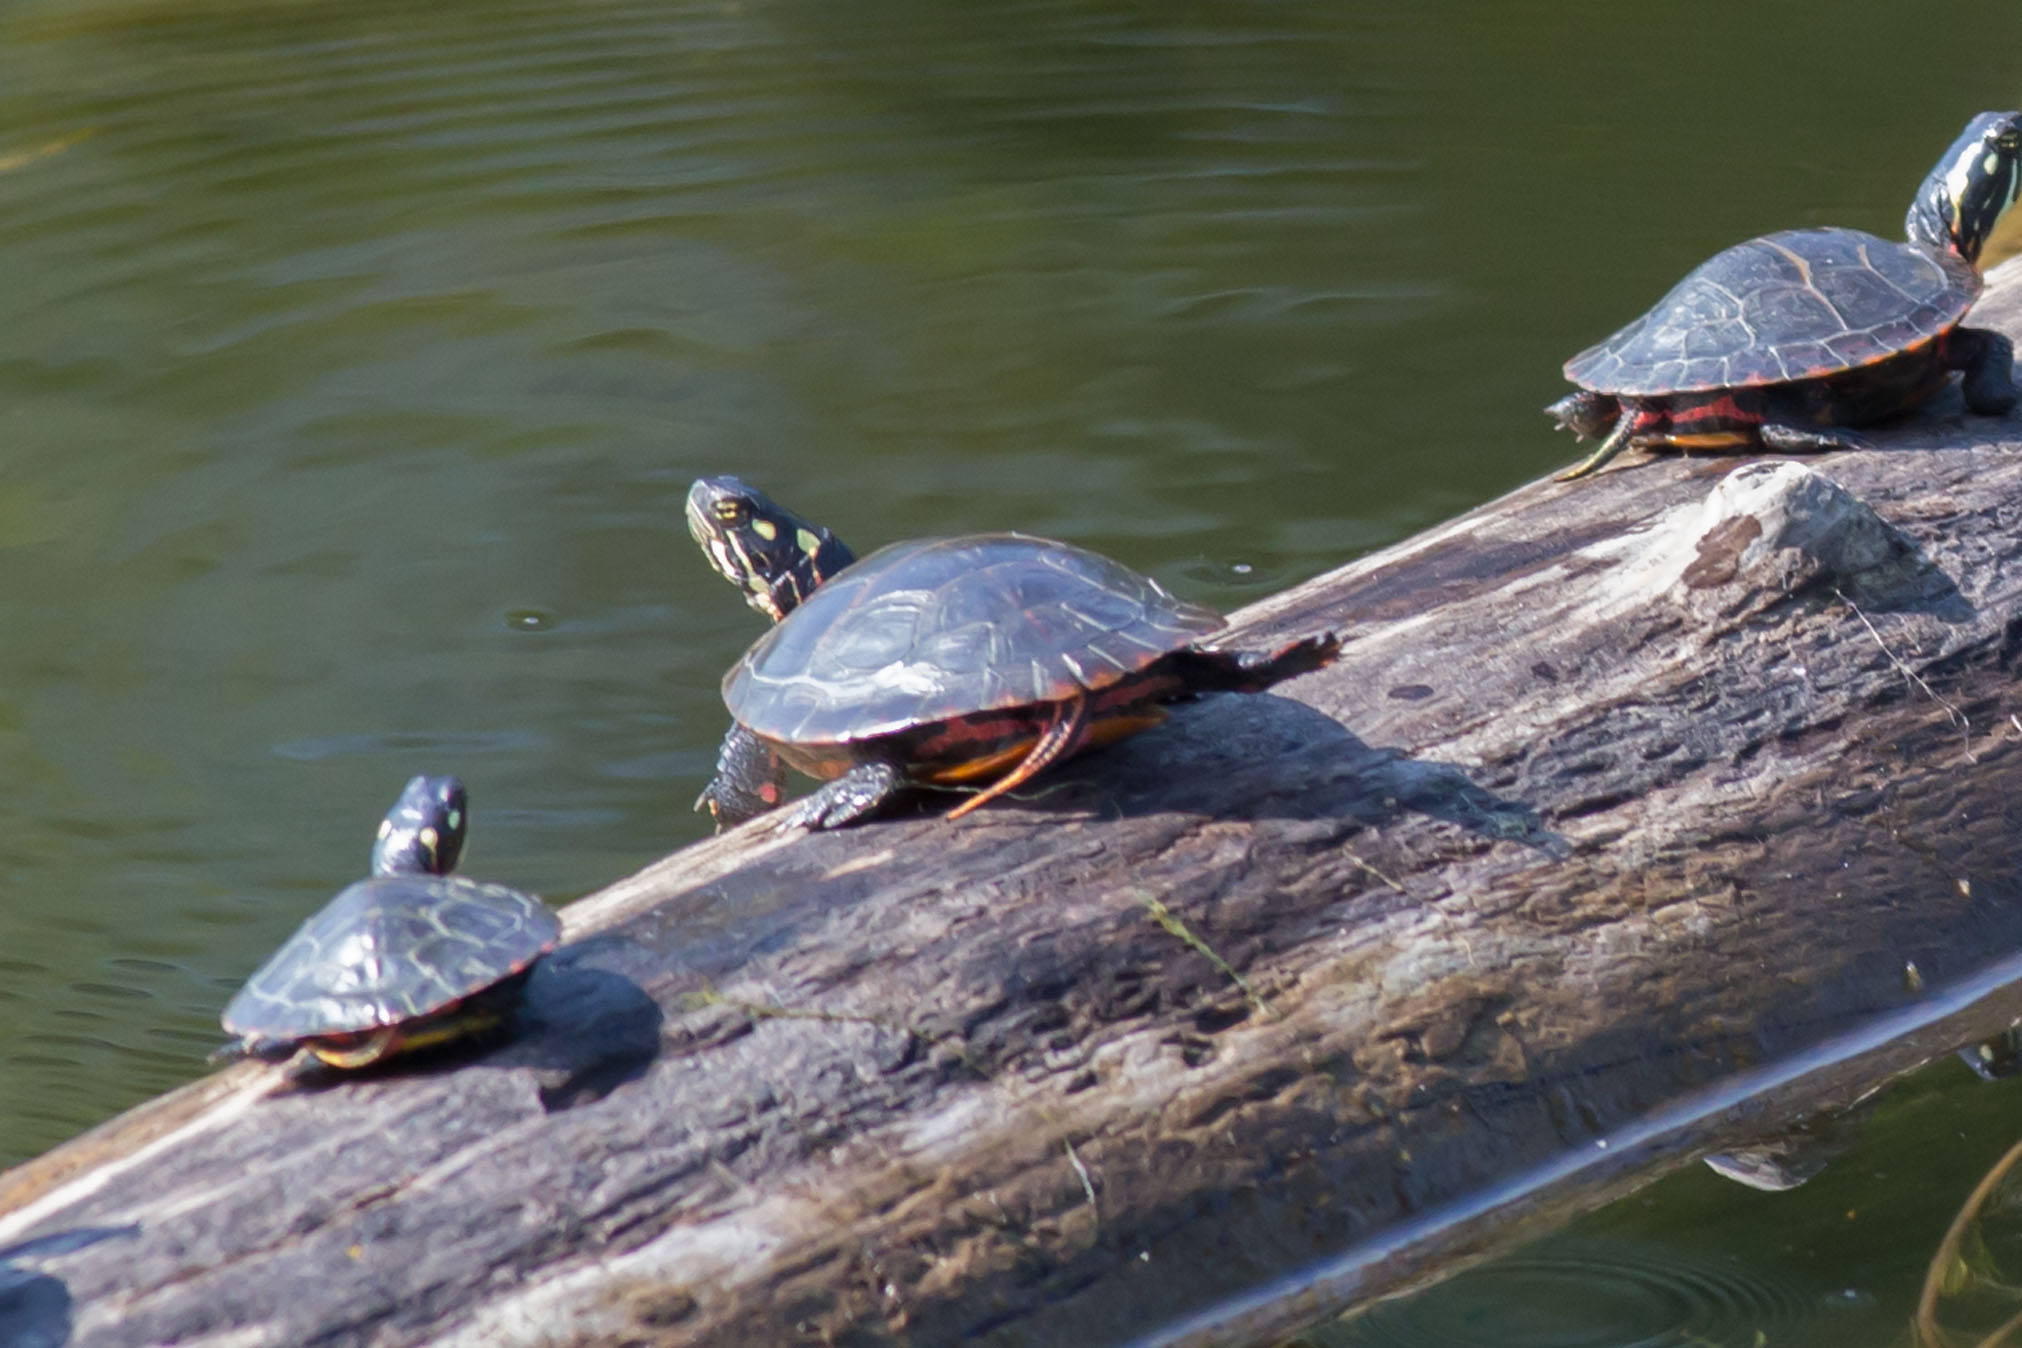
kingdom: Animalia
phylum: Chordata
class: Testudines
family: Emydidae
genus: Chrysemys
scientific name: Chrysemys picta
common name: Painted turtle
